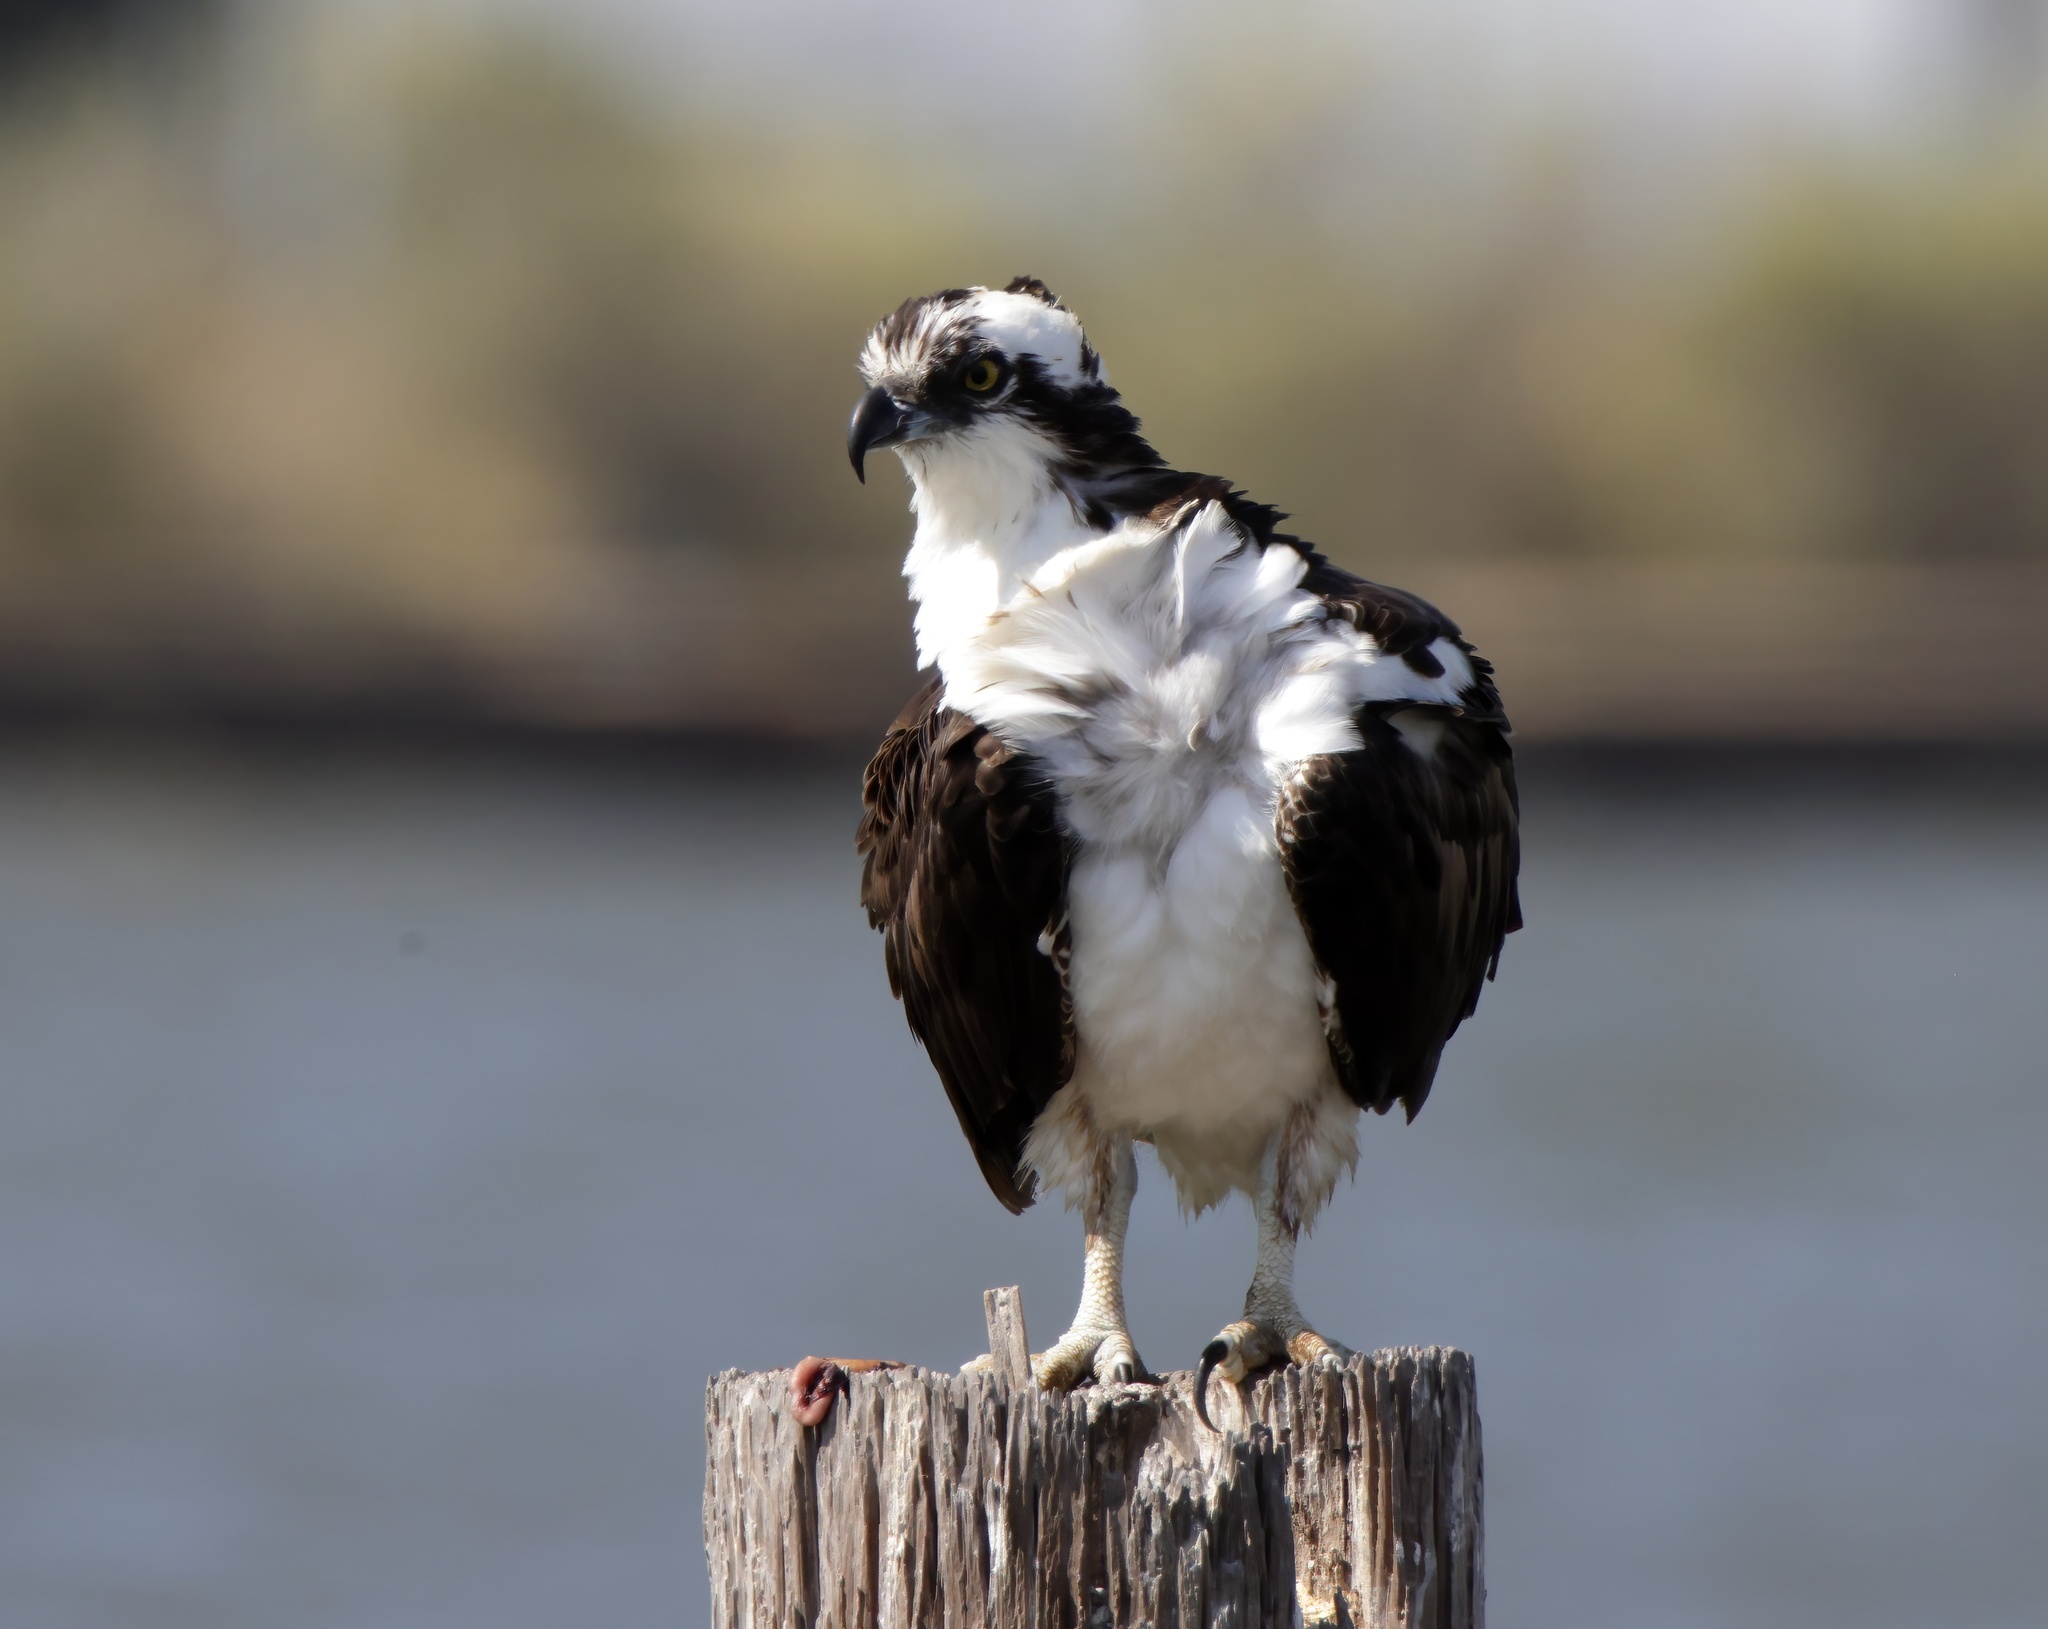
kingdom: Animalia
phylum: Chordata
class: Aves
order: Accipitriformes
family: Pandionidae
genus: Pandion
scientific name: Pandion haliaetus
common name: Osprey
